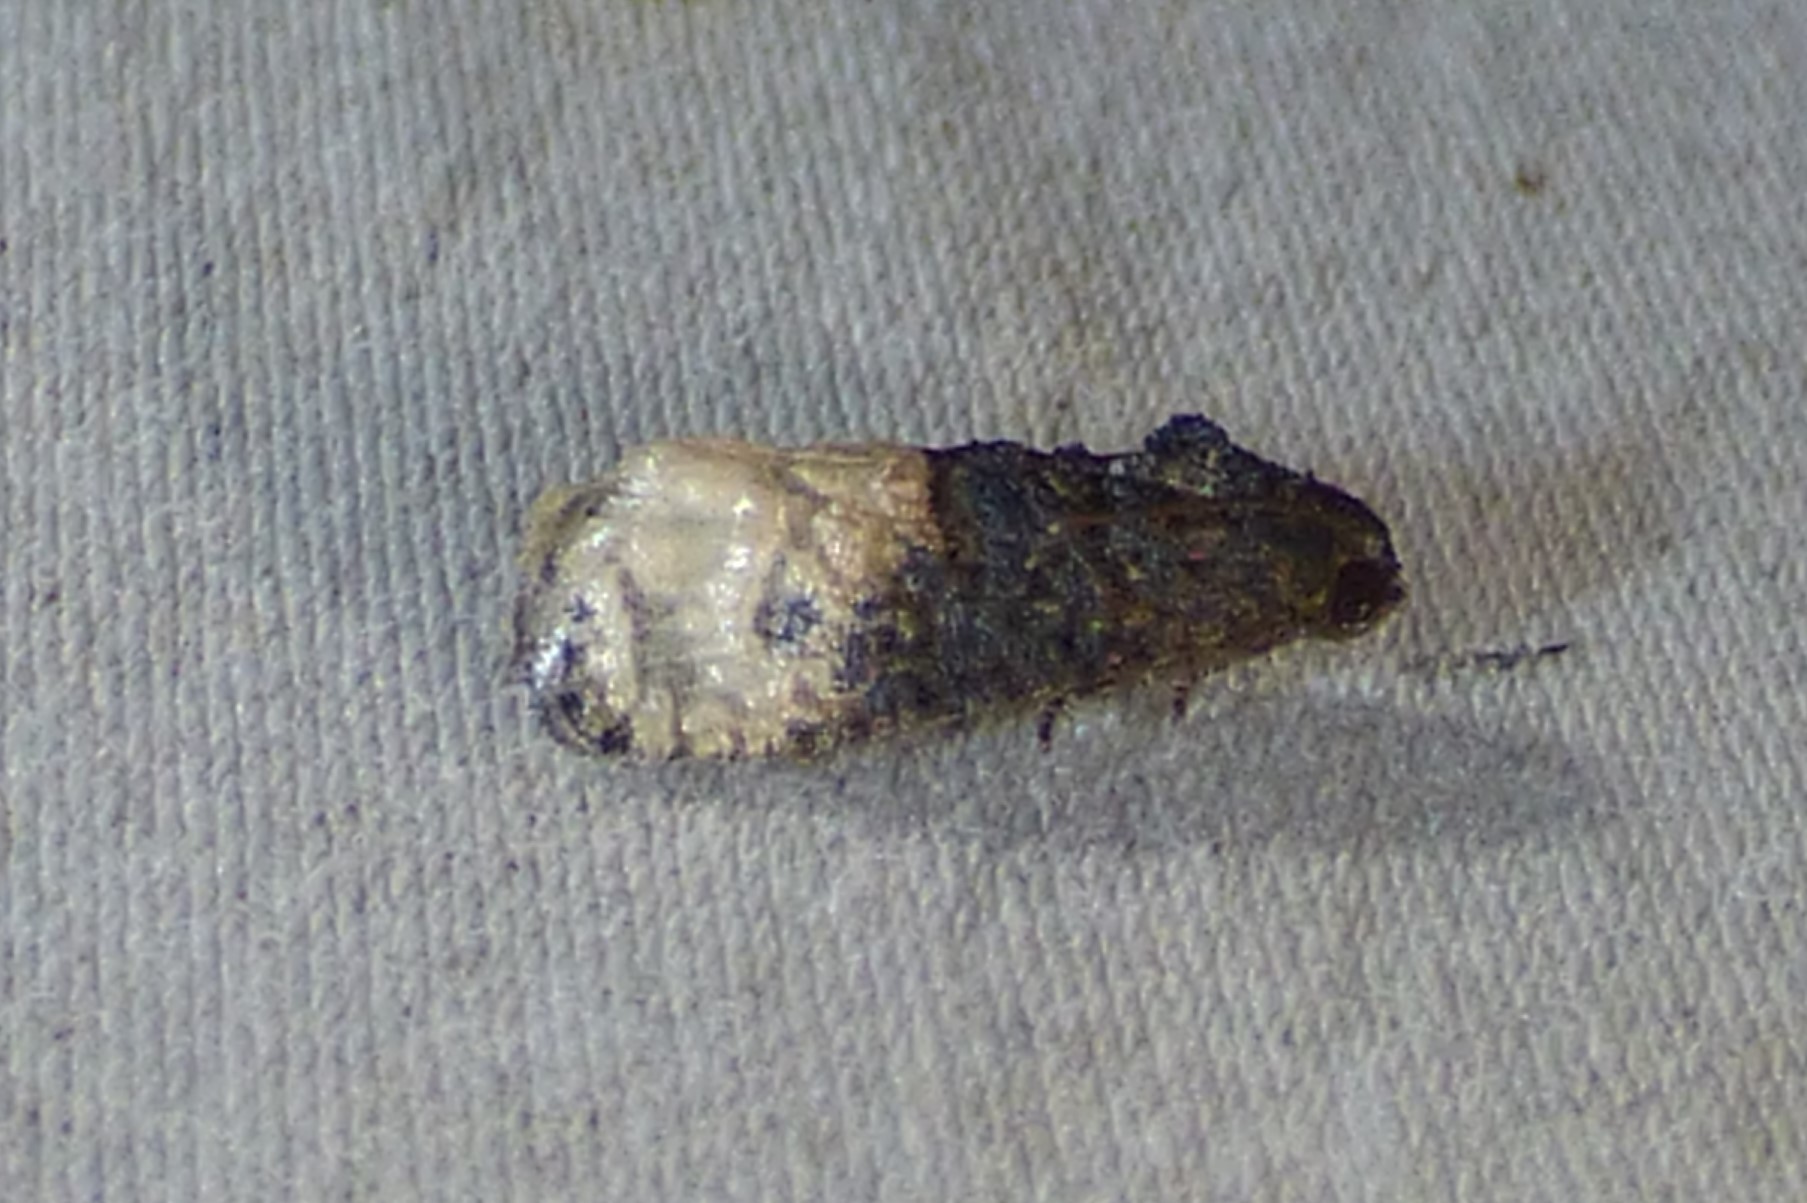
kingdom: Animalia
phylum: Arthropoda
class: Insecta
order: Lepidoptera
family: Tortricidae
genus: Ecdytolopha
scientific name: Ecdytolopha insiticiana
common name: Locust twig borer moth
